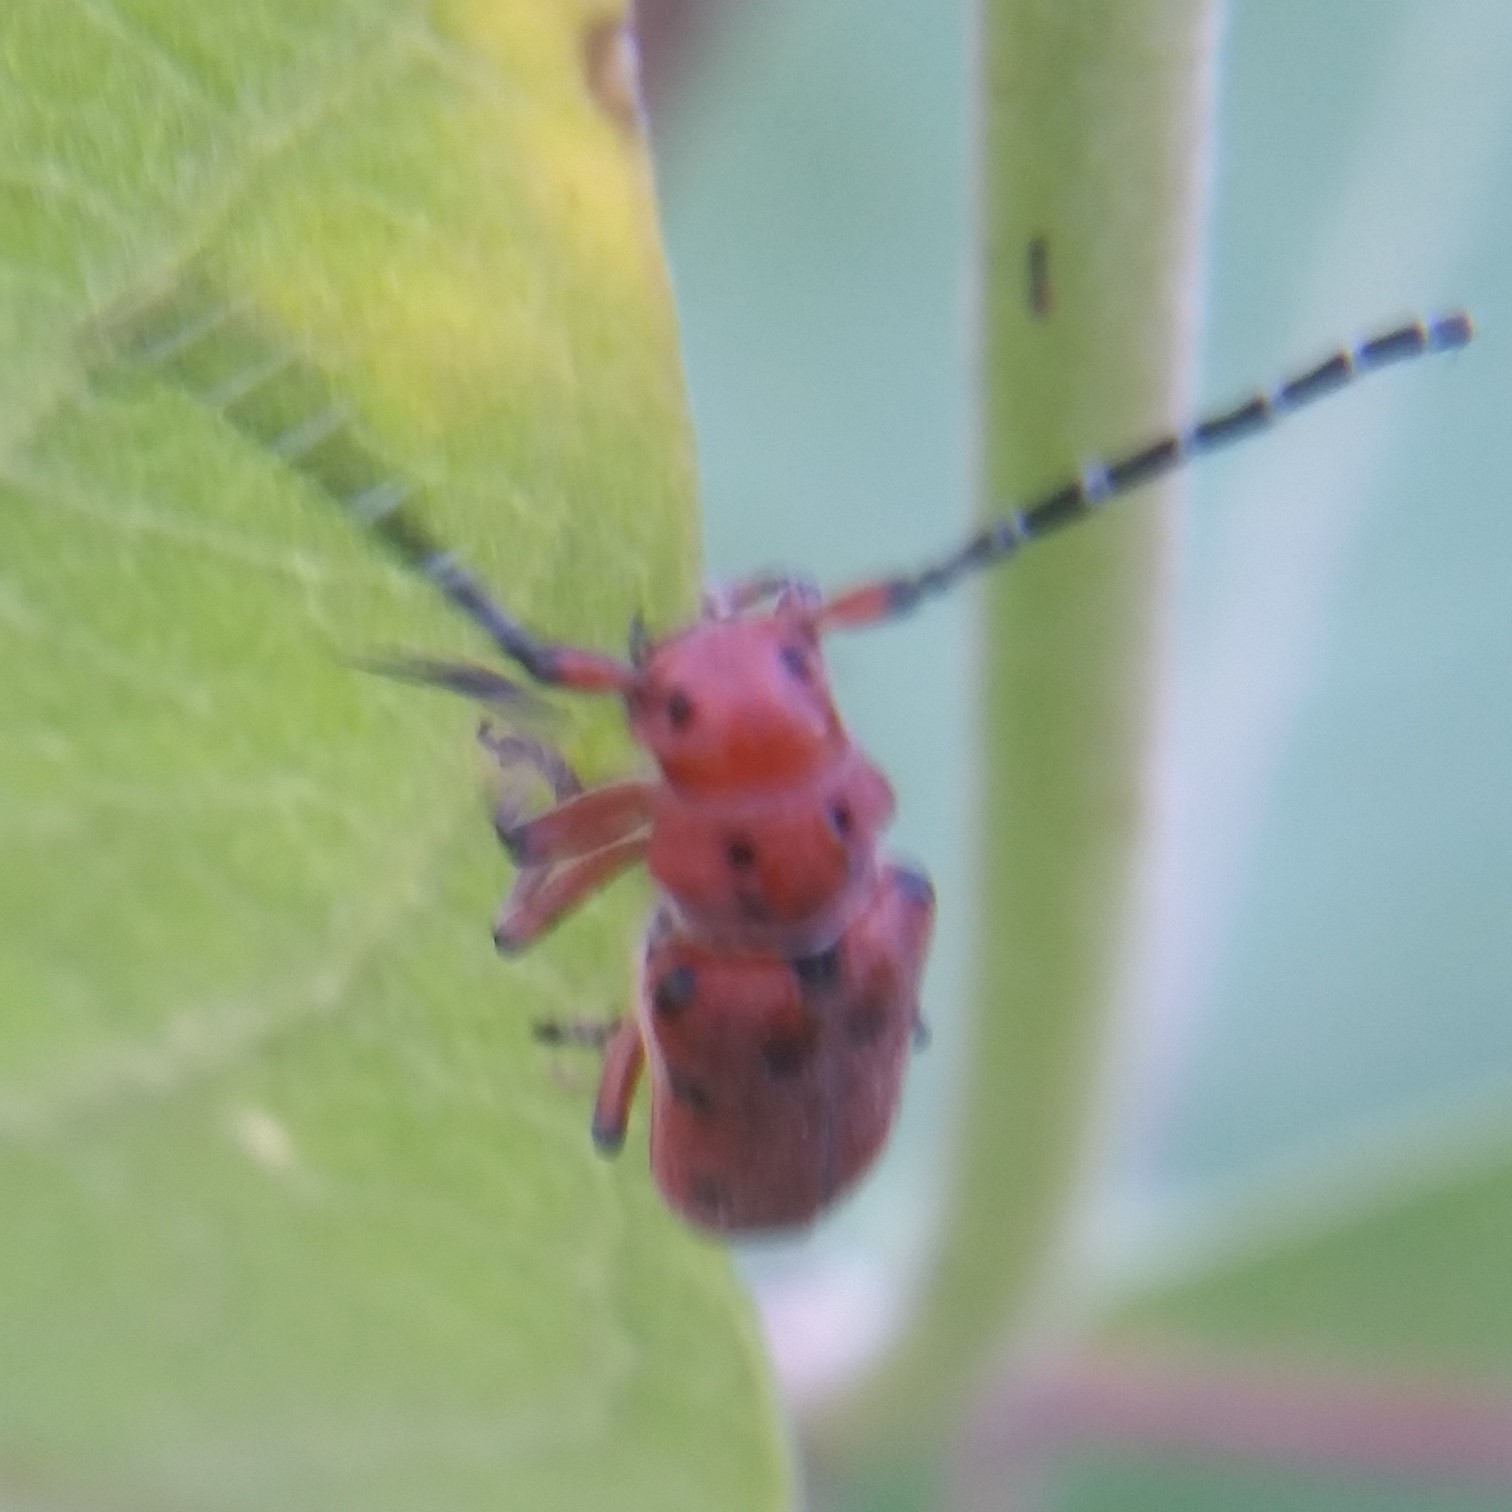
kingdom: Animalia
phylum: Arthropoda
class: Insecta
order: Coleoptera
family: Cerambycidae
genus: Tetraopes
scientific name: Tetraopes femoratus
